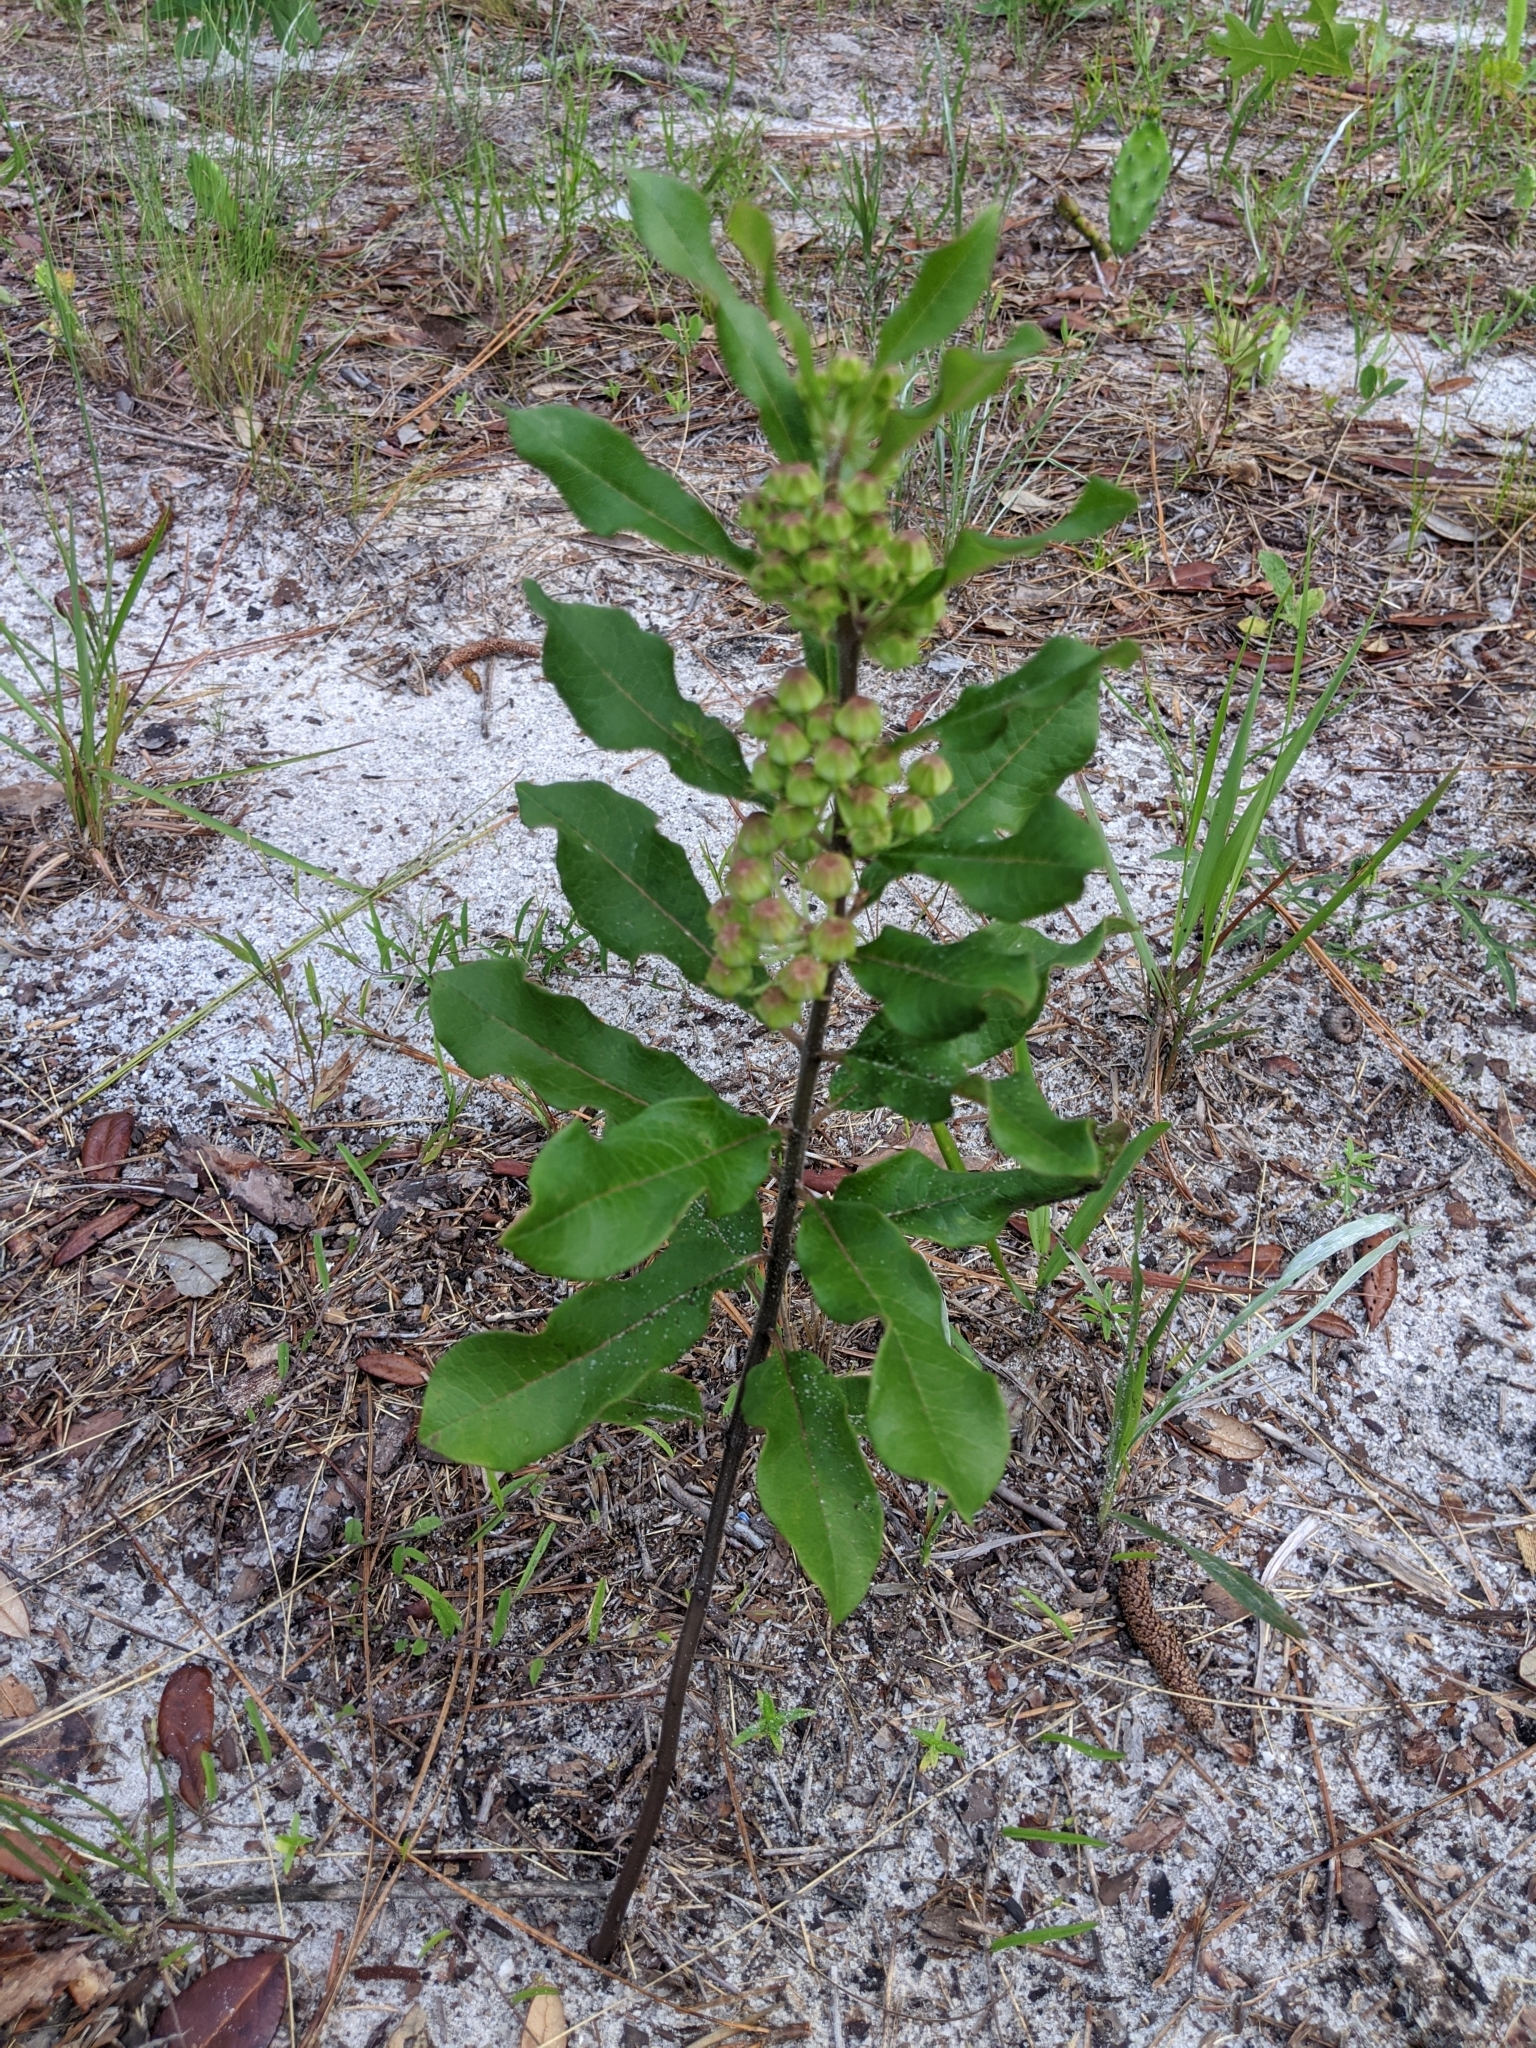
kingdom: Plantae
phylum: Tracheophyta
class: Magnoliopsida
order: Gentianales
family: Apocynaceae
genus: Asclepias
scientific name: Asclepias tomentosa
